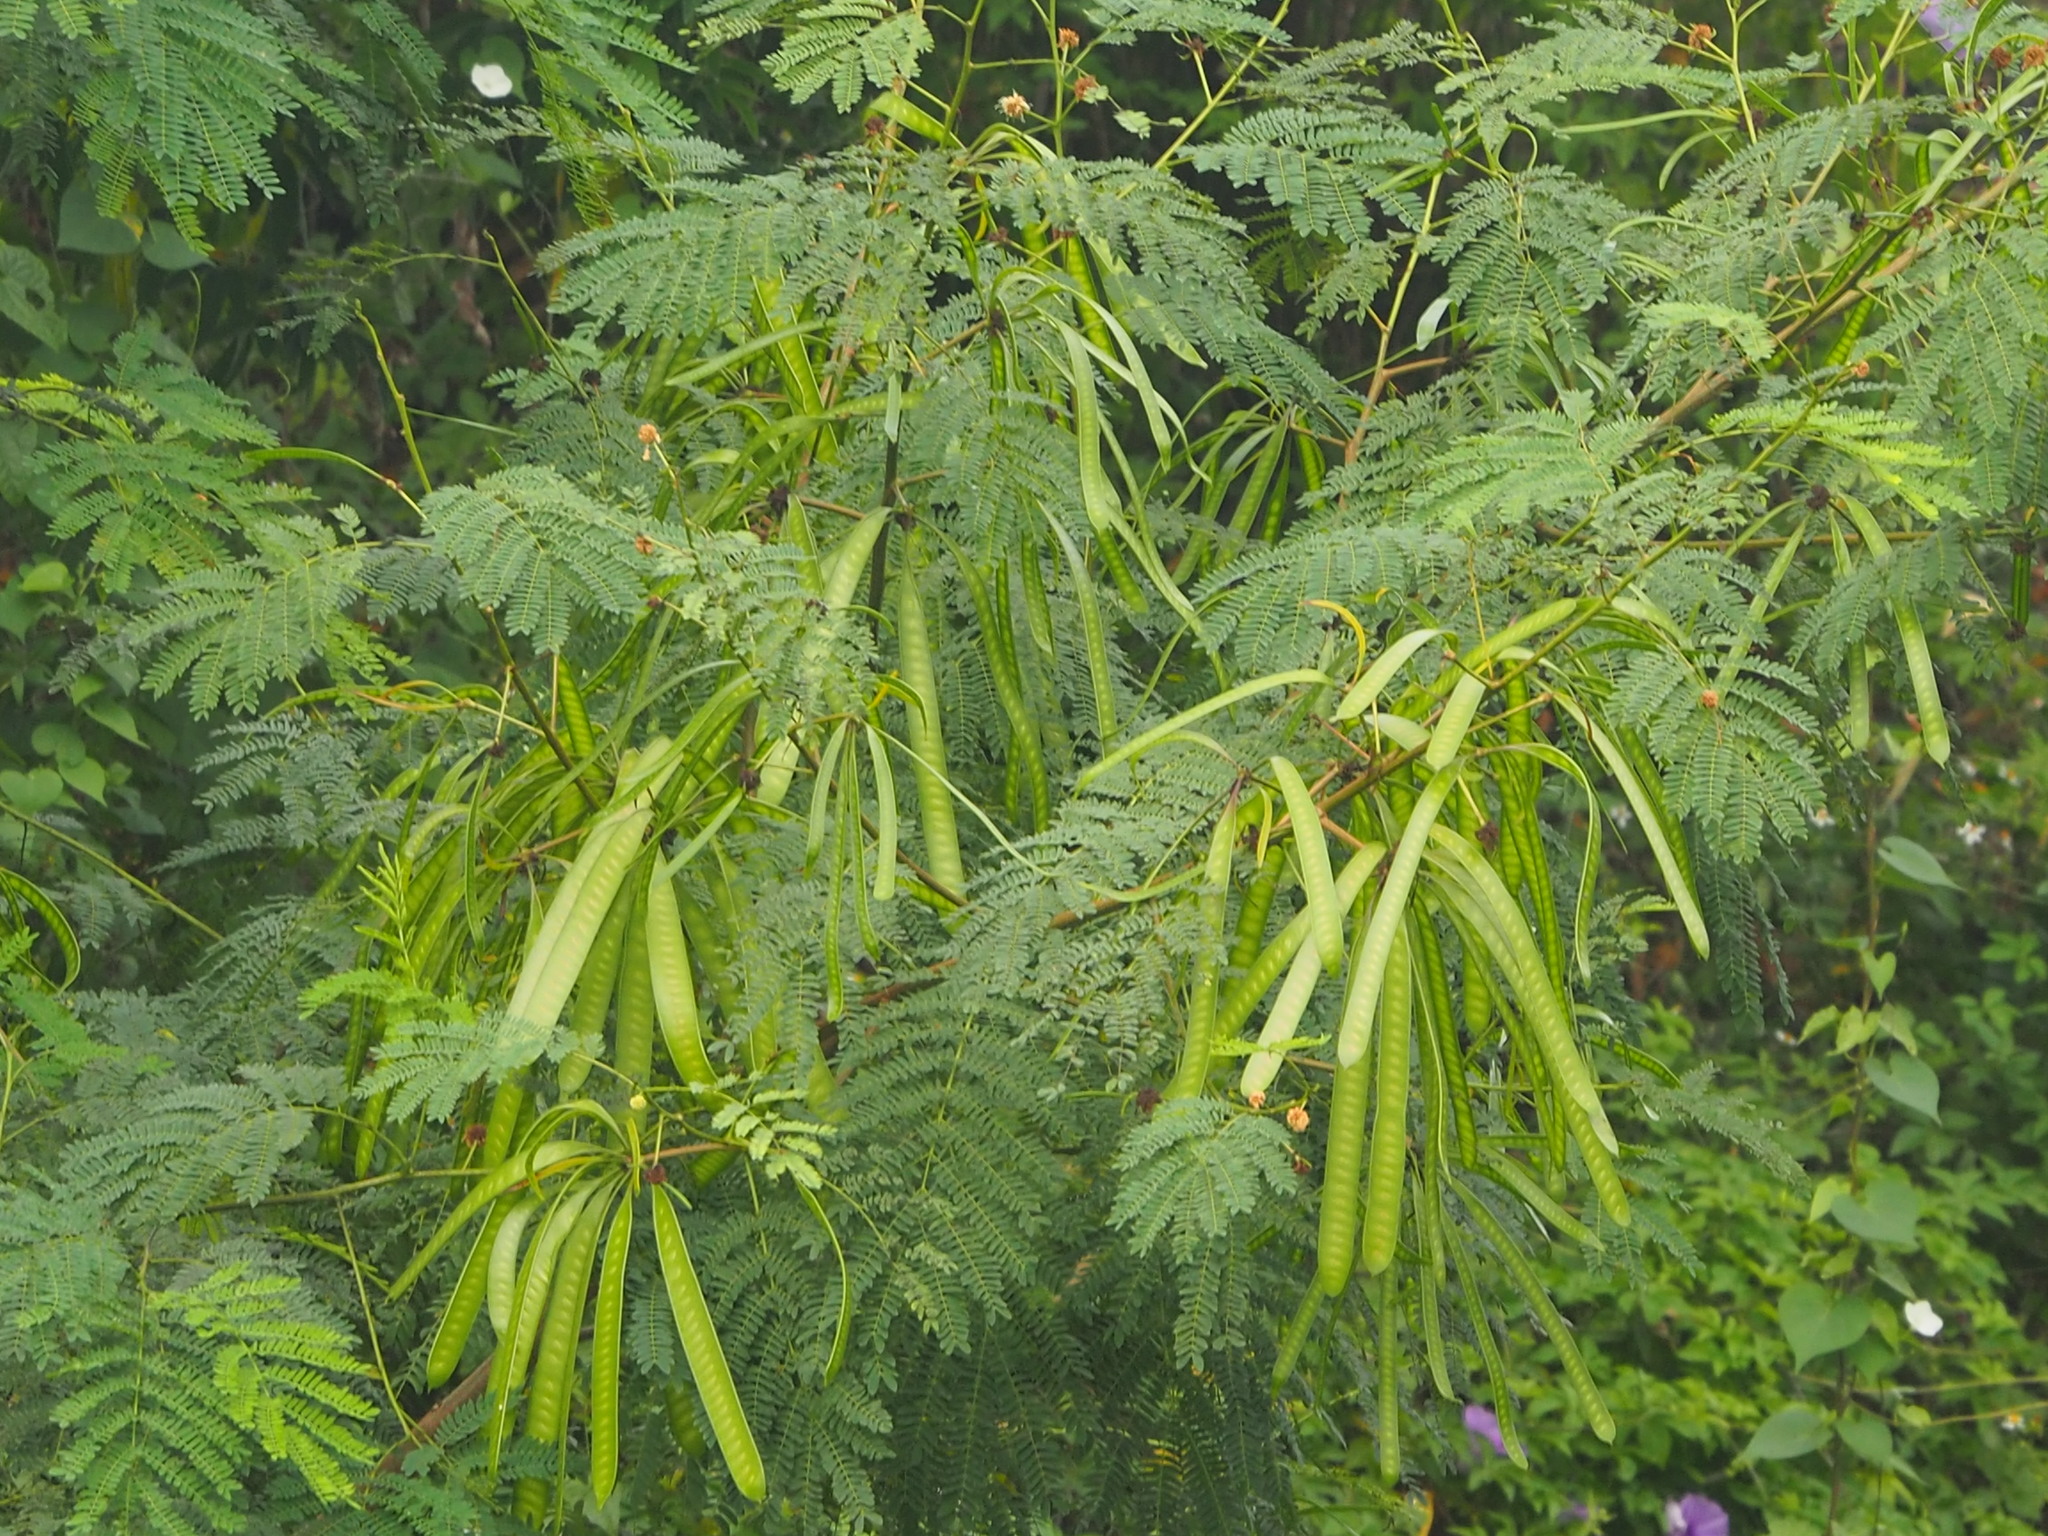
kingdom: Plantae
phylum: Tracheophyta
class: Magnoliopsida
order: Fabales
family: Fabaceae
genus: Leucaena
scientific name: Leucaena leucocephala
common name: White leadtree
